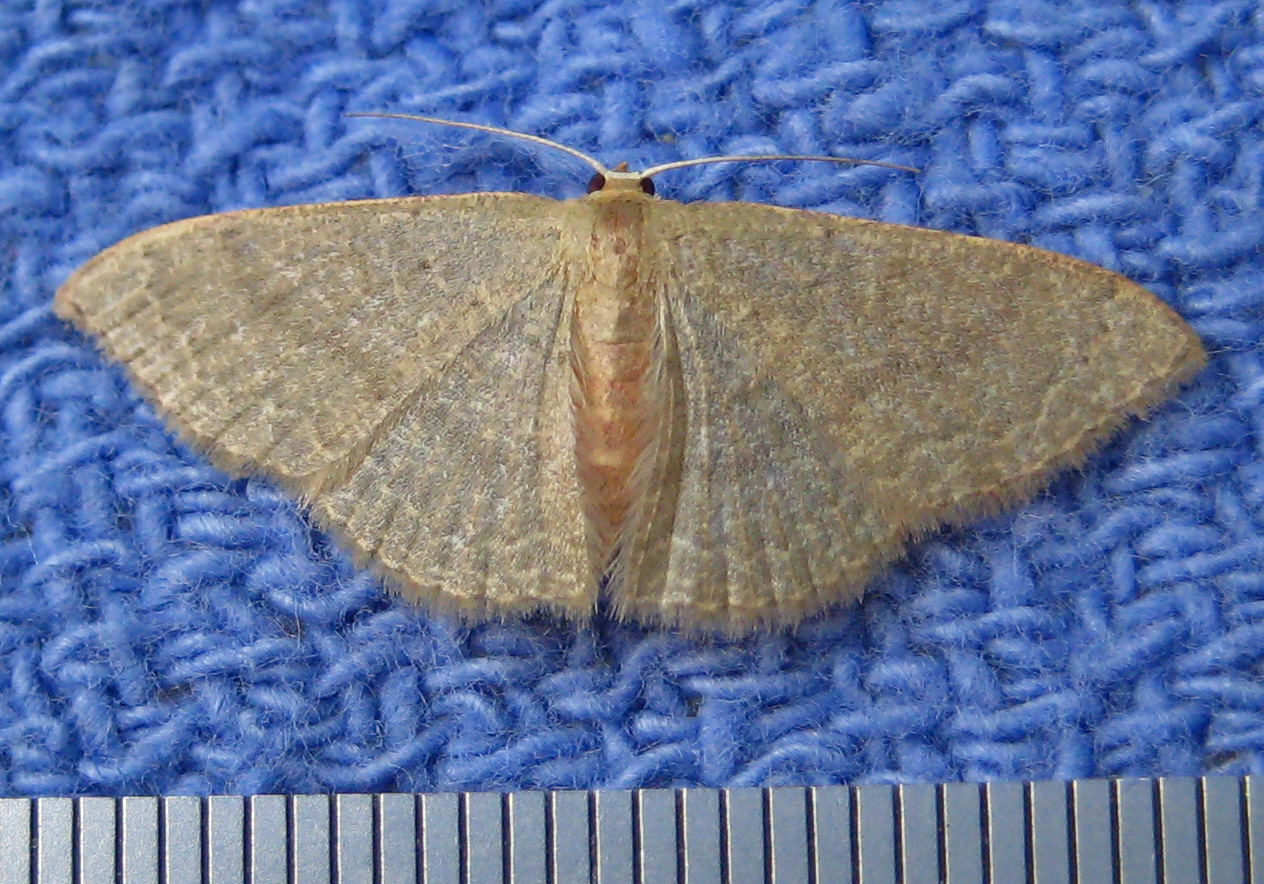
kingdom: Animalia
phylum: Arthropoda
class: Insecta
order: Lepidoptera
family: Geometridae
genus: Pleuroprucha
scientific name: Pleuroprucha insulsaria
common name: Common tan wave
